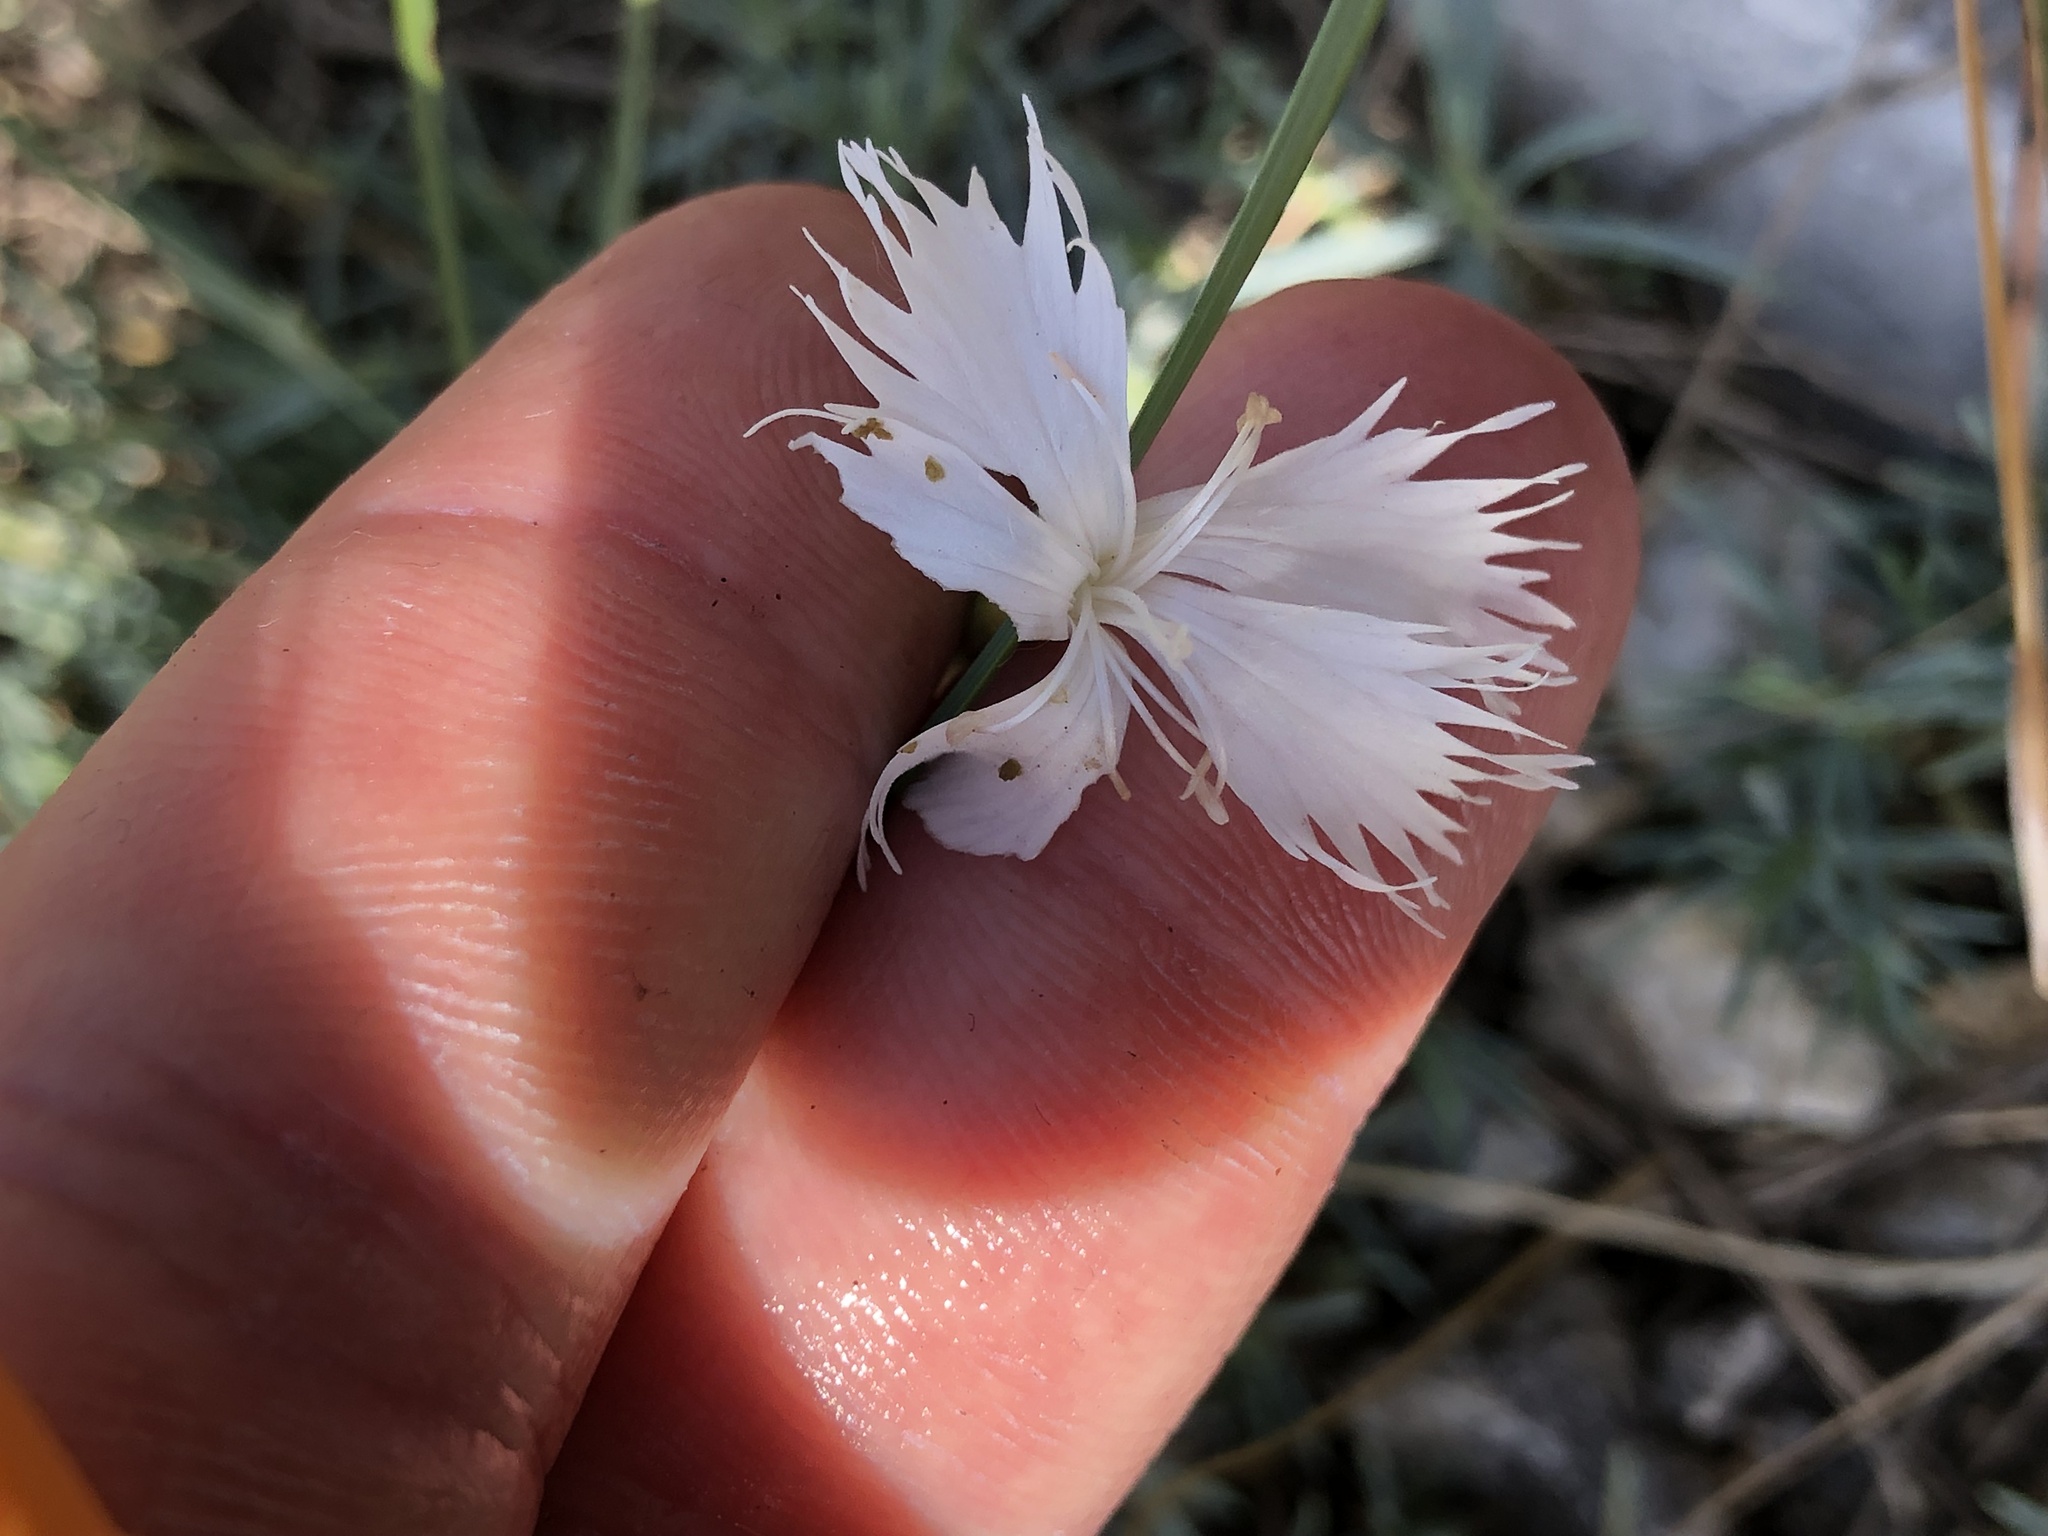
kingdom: Plantae
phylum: Tracheophyta
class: Magnoliopsida
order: Caryophyllales
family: Caryophyllaceae
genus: Dianthus
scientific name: Dianthus praecox
